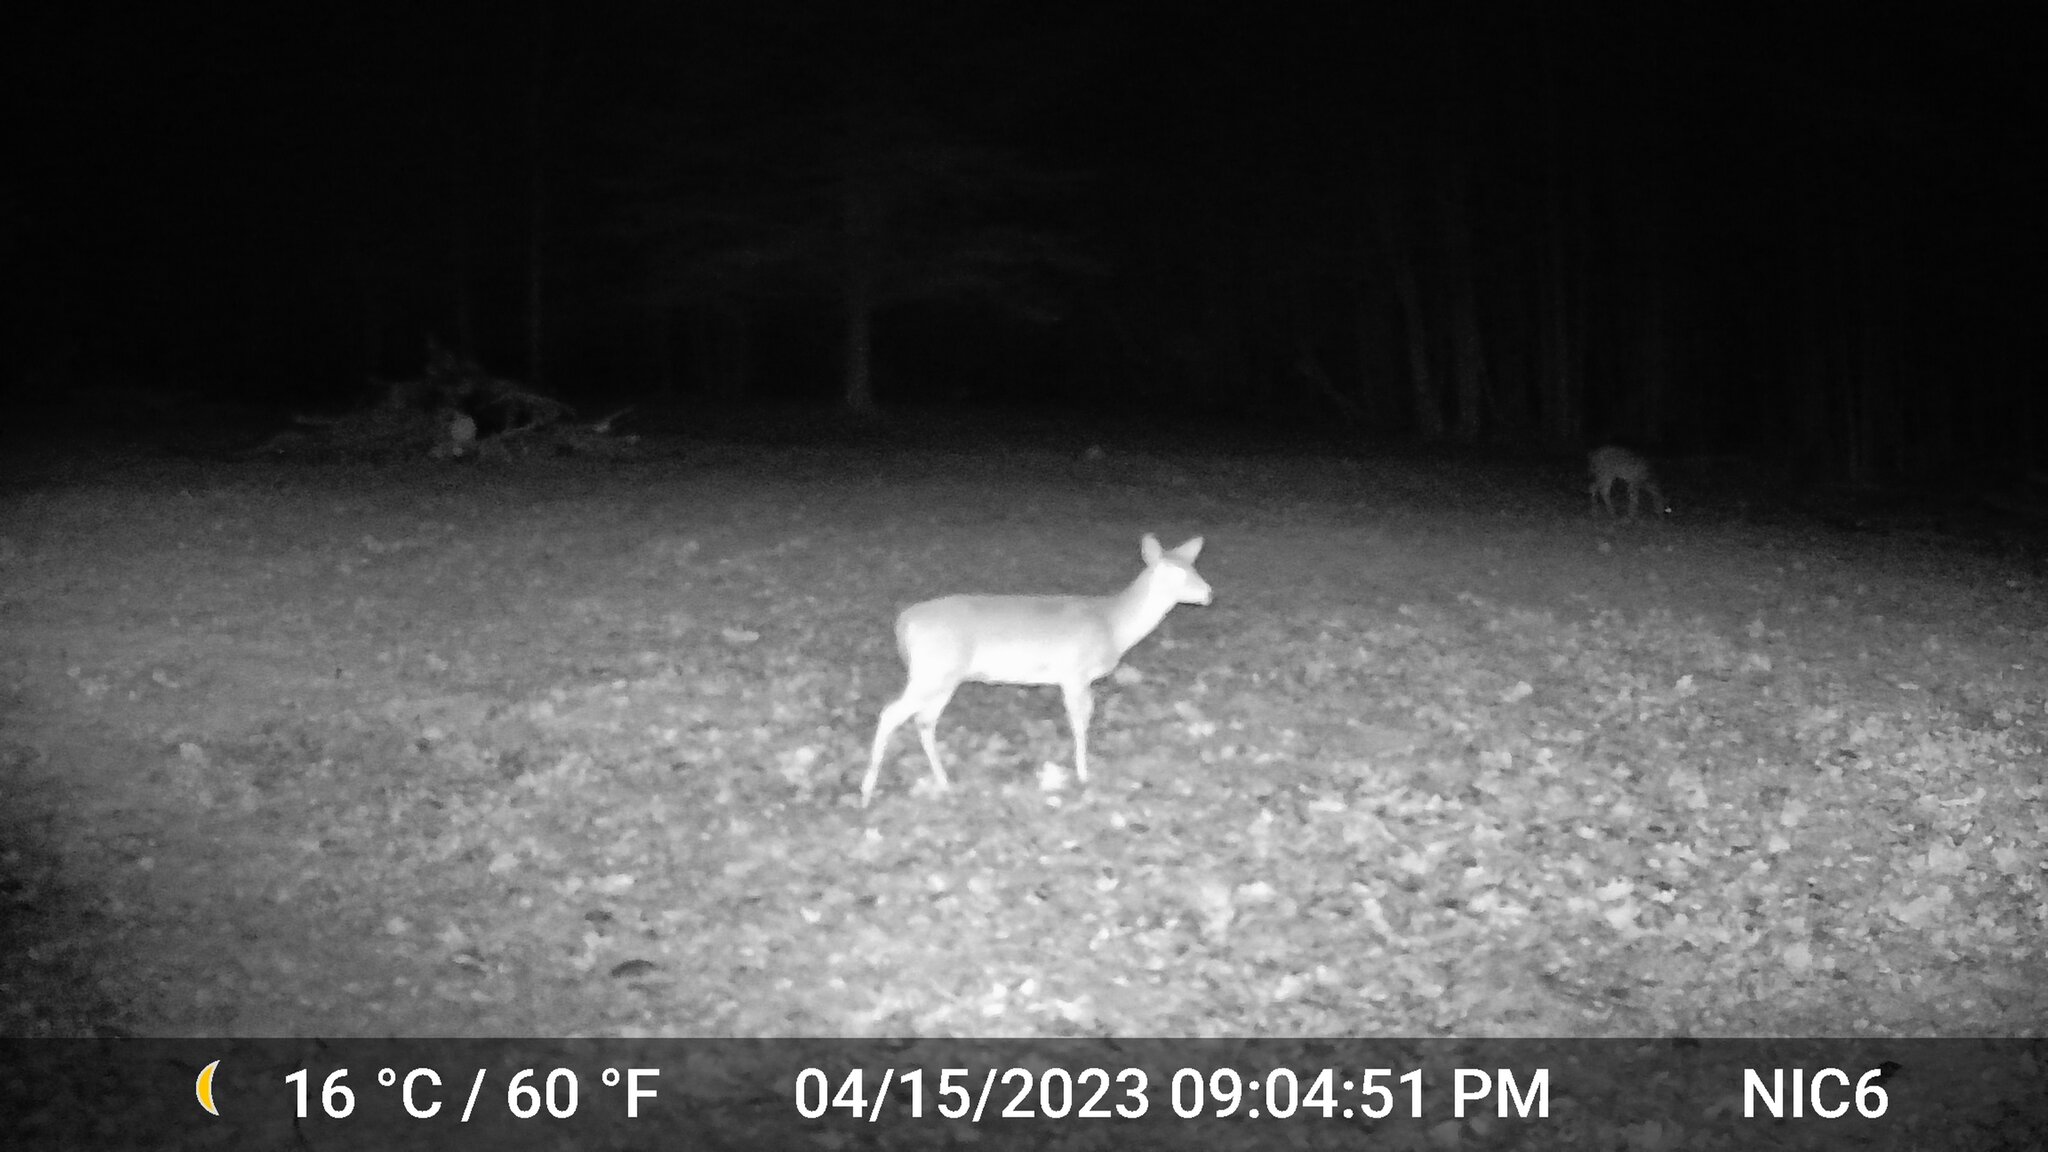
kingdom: Animalia
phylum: Chordata
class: Mammalia
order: Artiodactyla
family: Cervidae
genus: Odocoileus
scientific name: Odocoileus virginianus
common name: White-tailed deer
